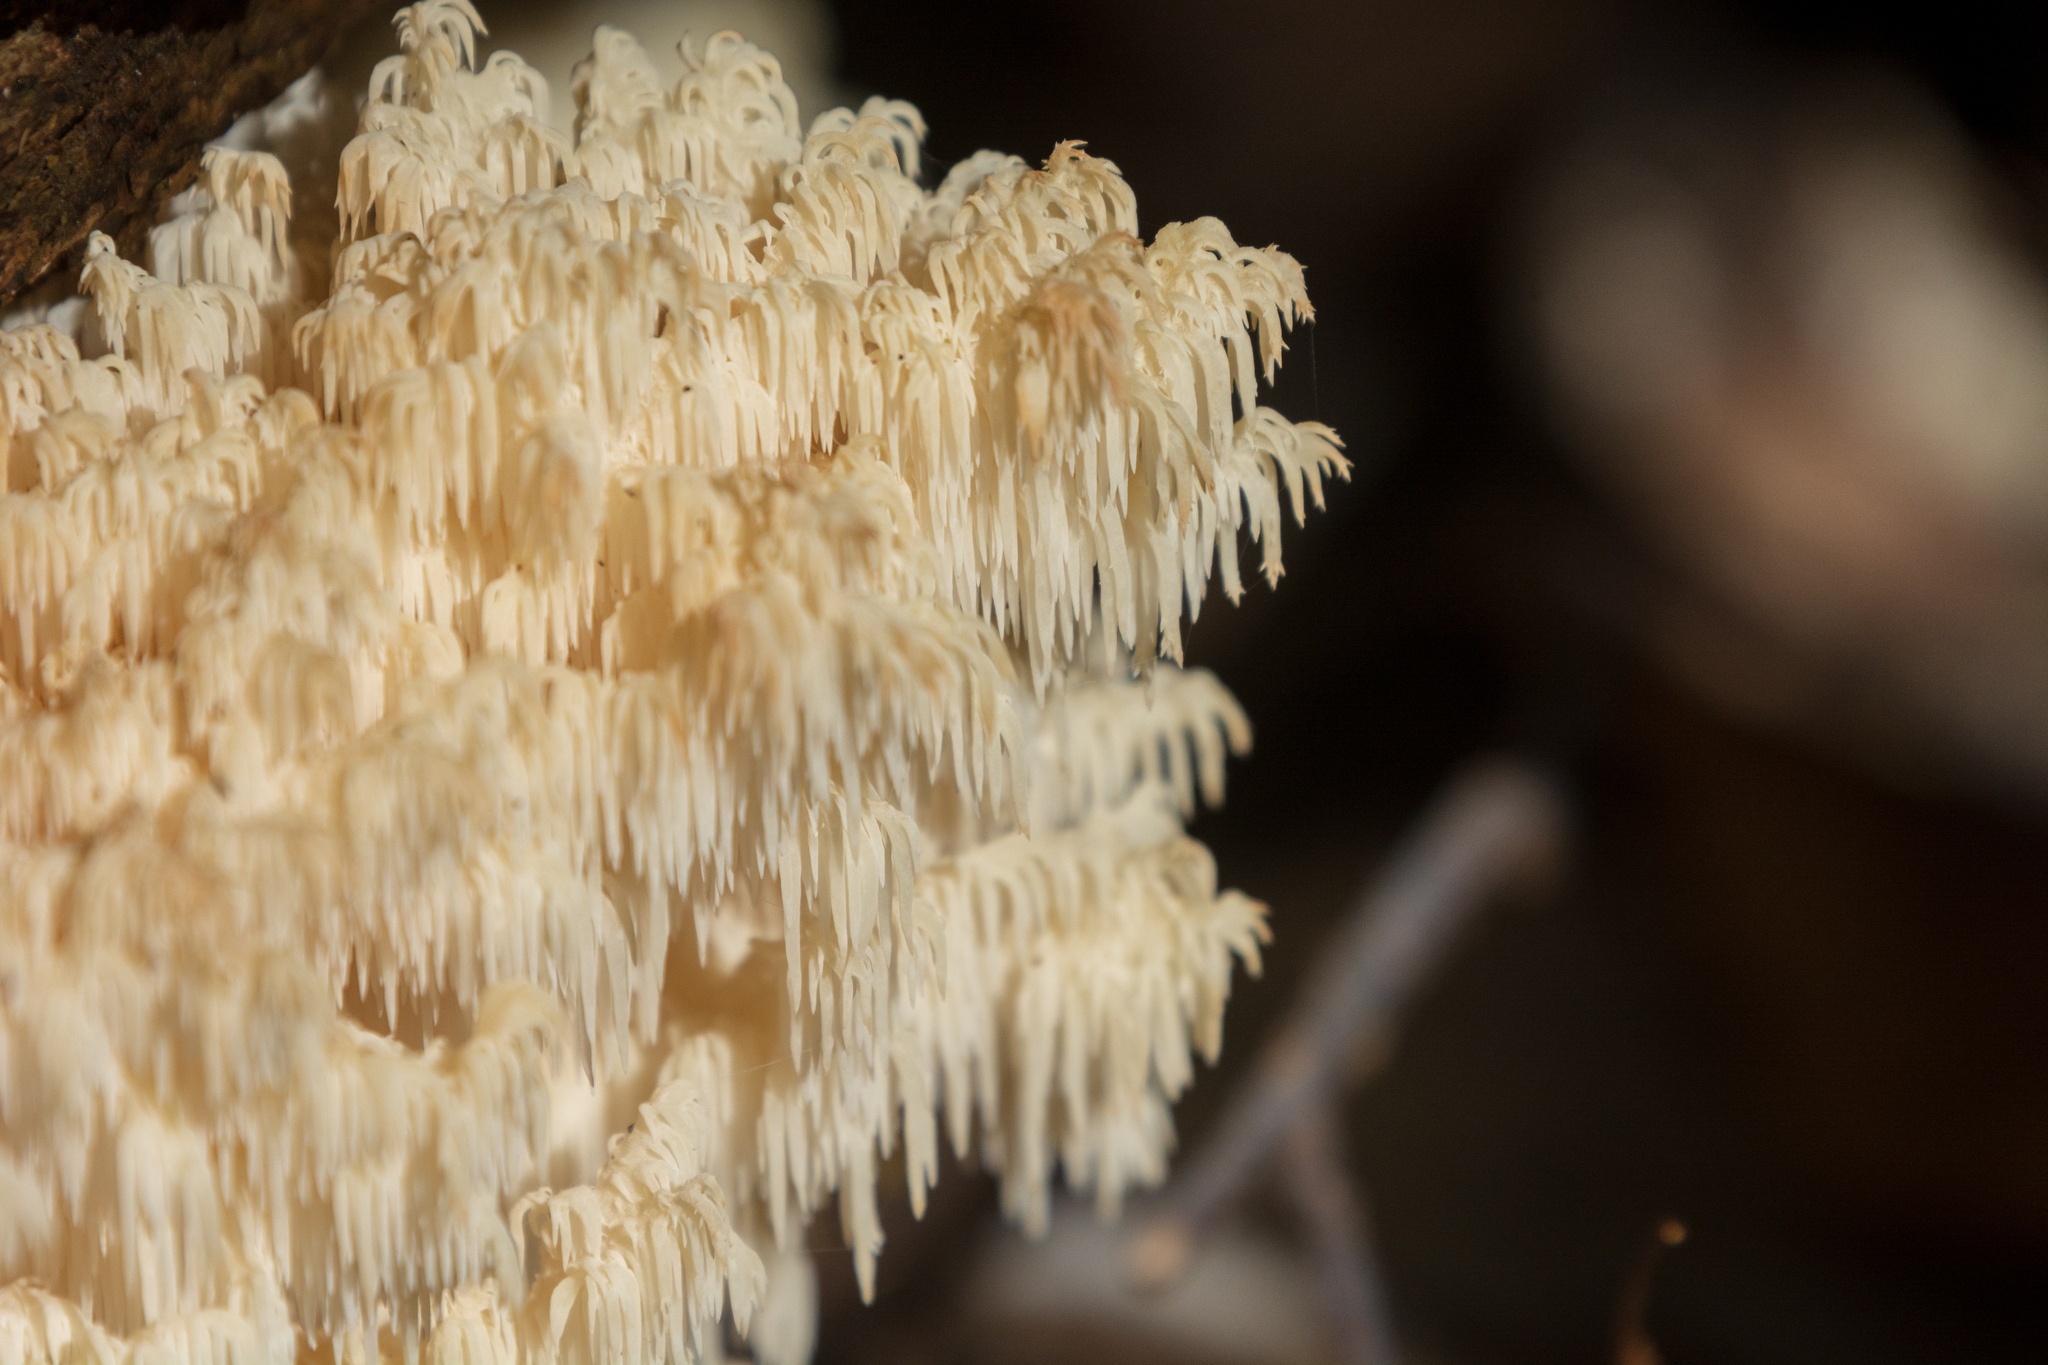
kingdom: Fungi
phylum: Basidiomycota
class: Agaricomycetes
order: Russulales
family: Hericiaceae
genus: Hericium
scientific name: Hericium coralloides
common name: Coral tooth
